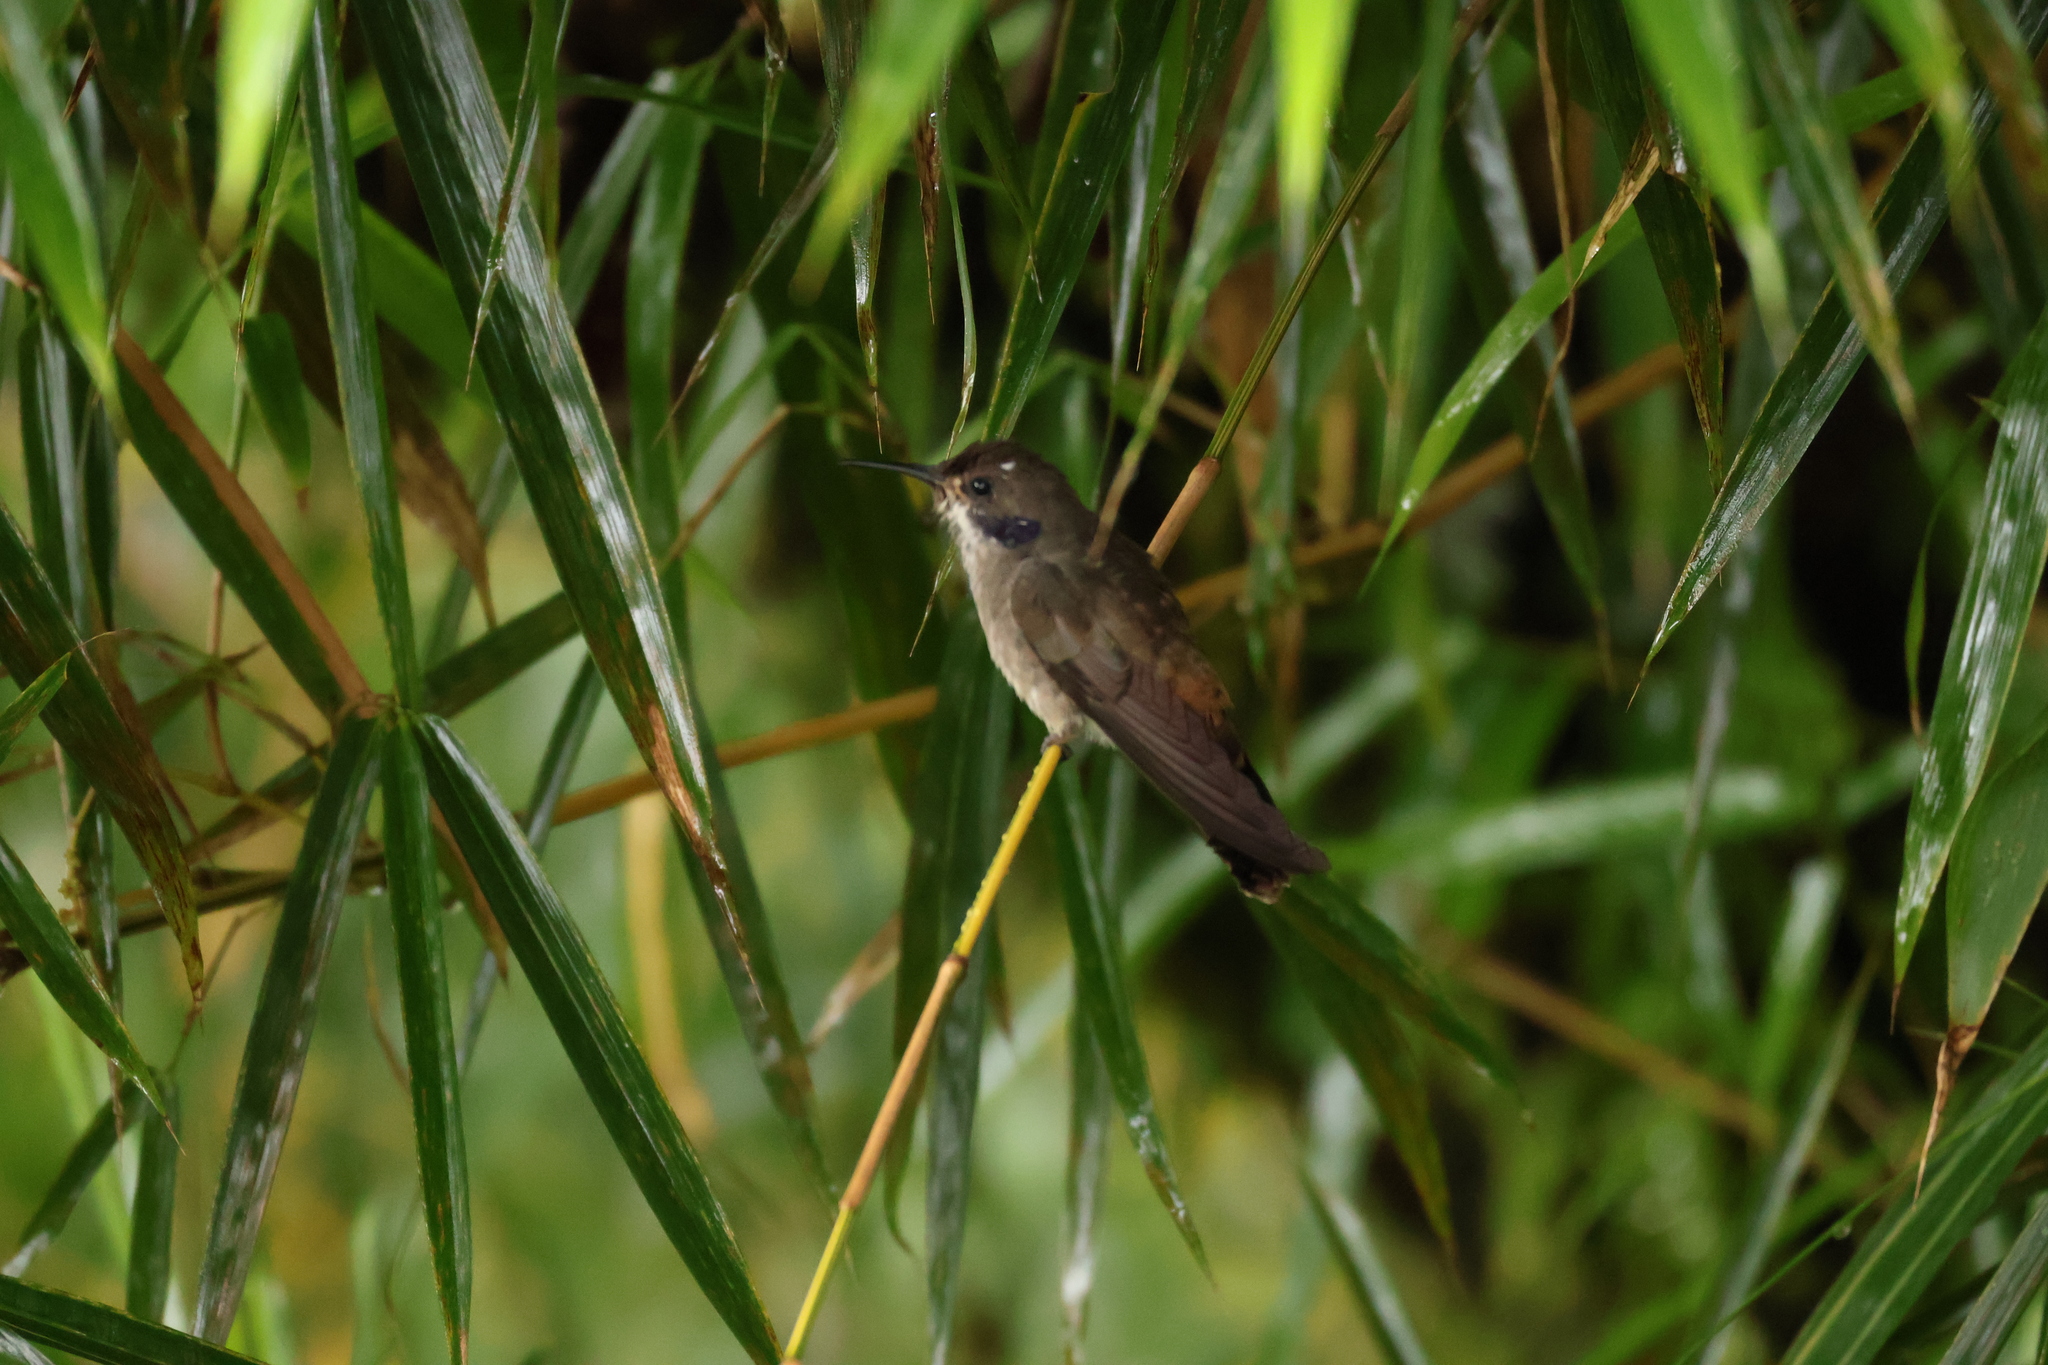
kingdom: Animalia
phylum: Chordata
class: Aves
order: Apodiformes
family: Trochilidae
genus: Colibri
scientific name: Colibri delphinae
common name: Brown violetear
